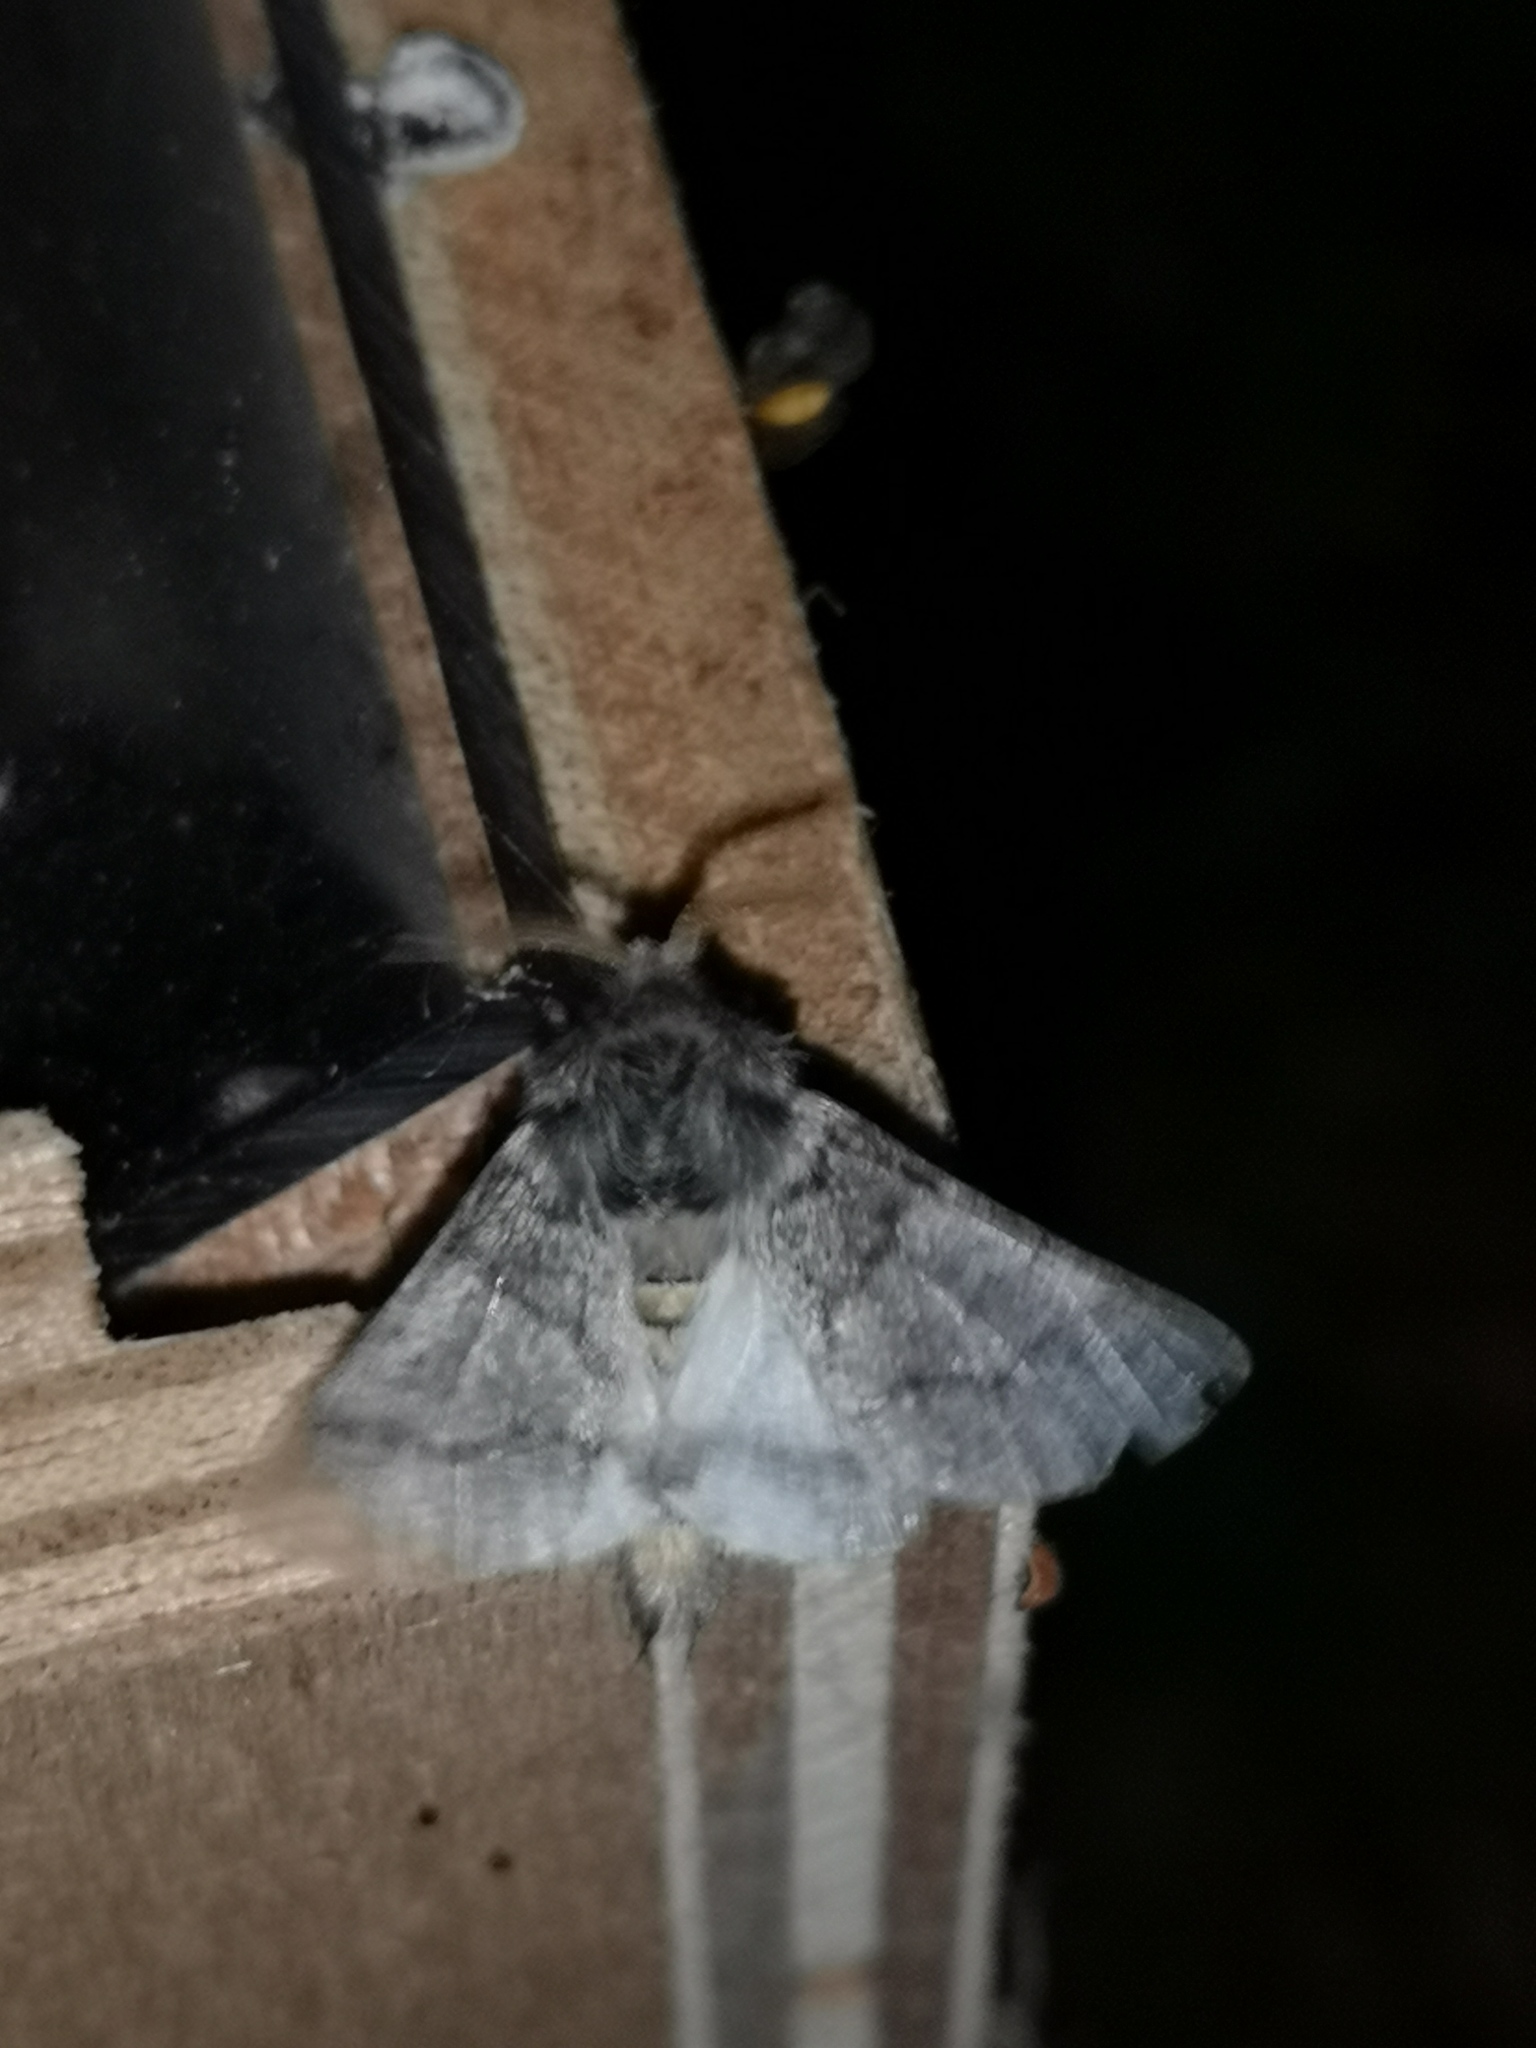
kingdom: Animalia
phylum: Arthropoda
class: Insecta
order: Lepidoptera
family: Notodontidae
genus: Thaumetopoea
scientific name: Thaumetopoea processionea
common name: Oak processionea
